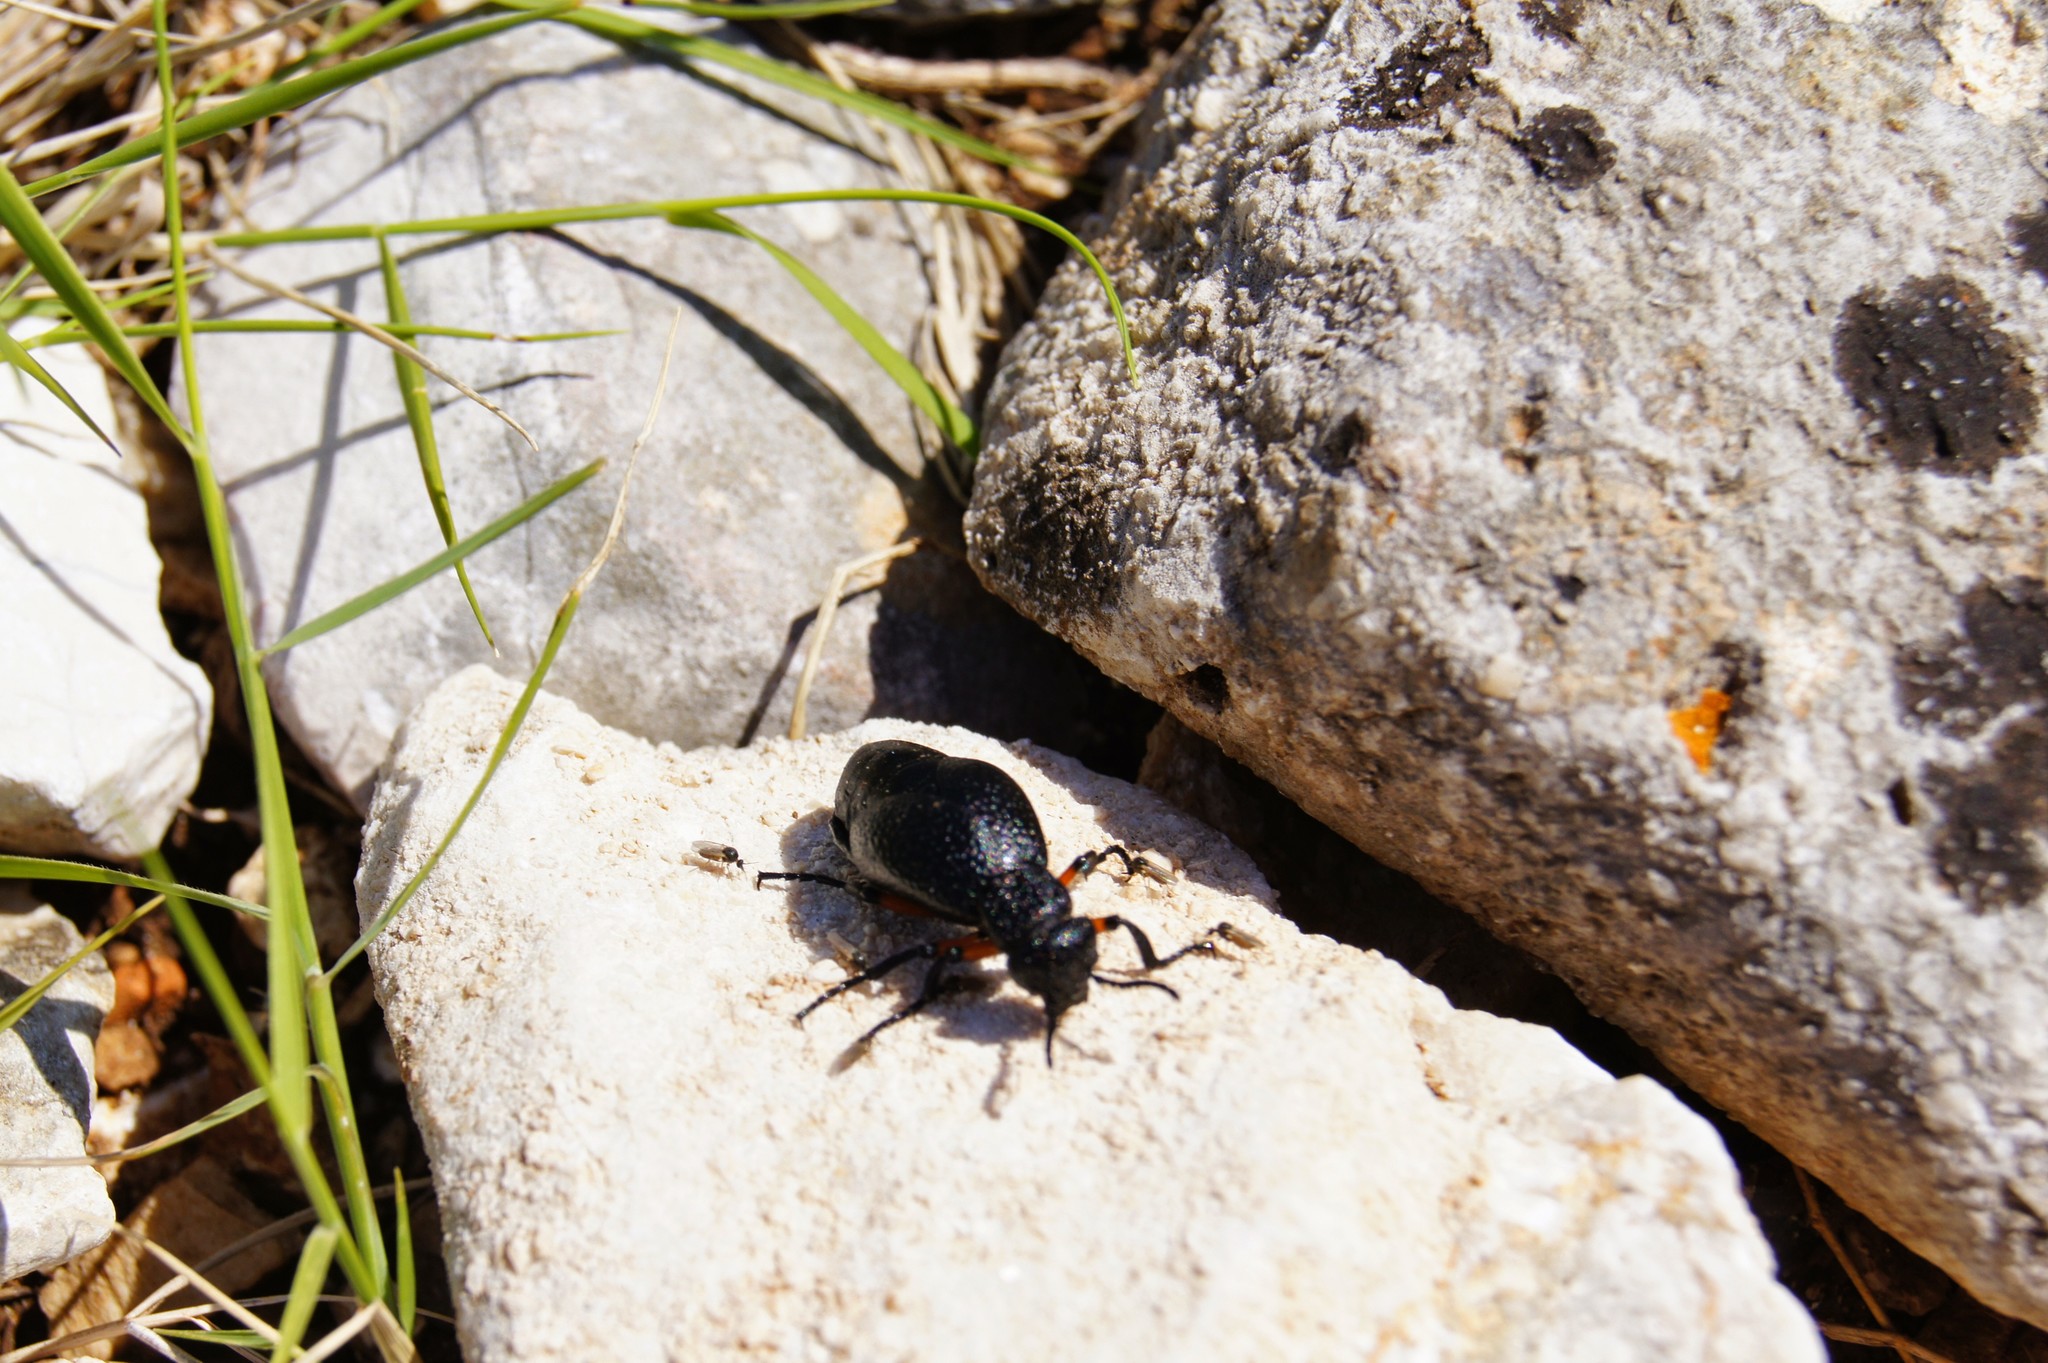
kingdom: Animalia
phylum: Arthropoda
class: Insecta
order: Coleoptera
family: Meloidae
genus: Meloe
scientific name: Meloe erythrocnemus
